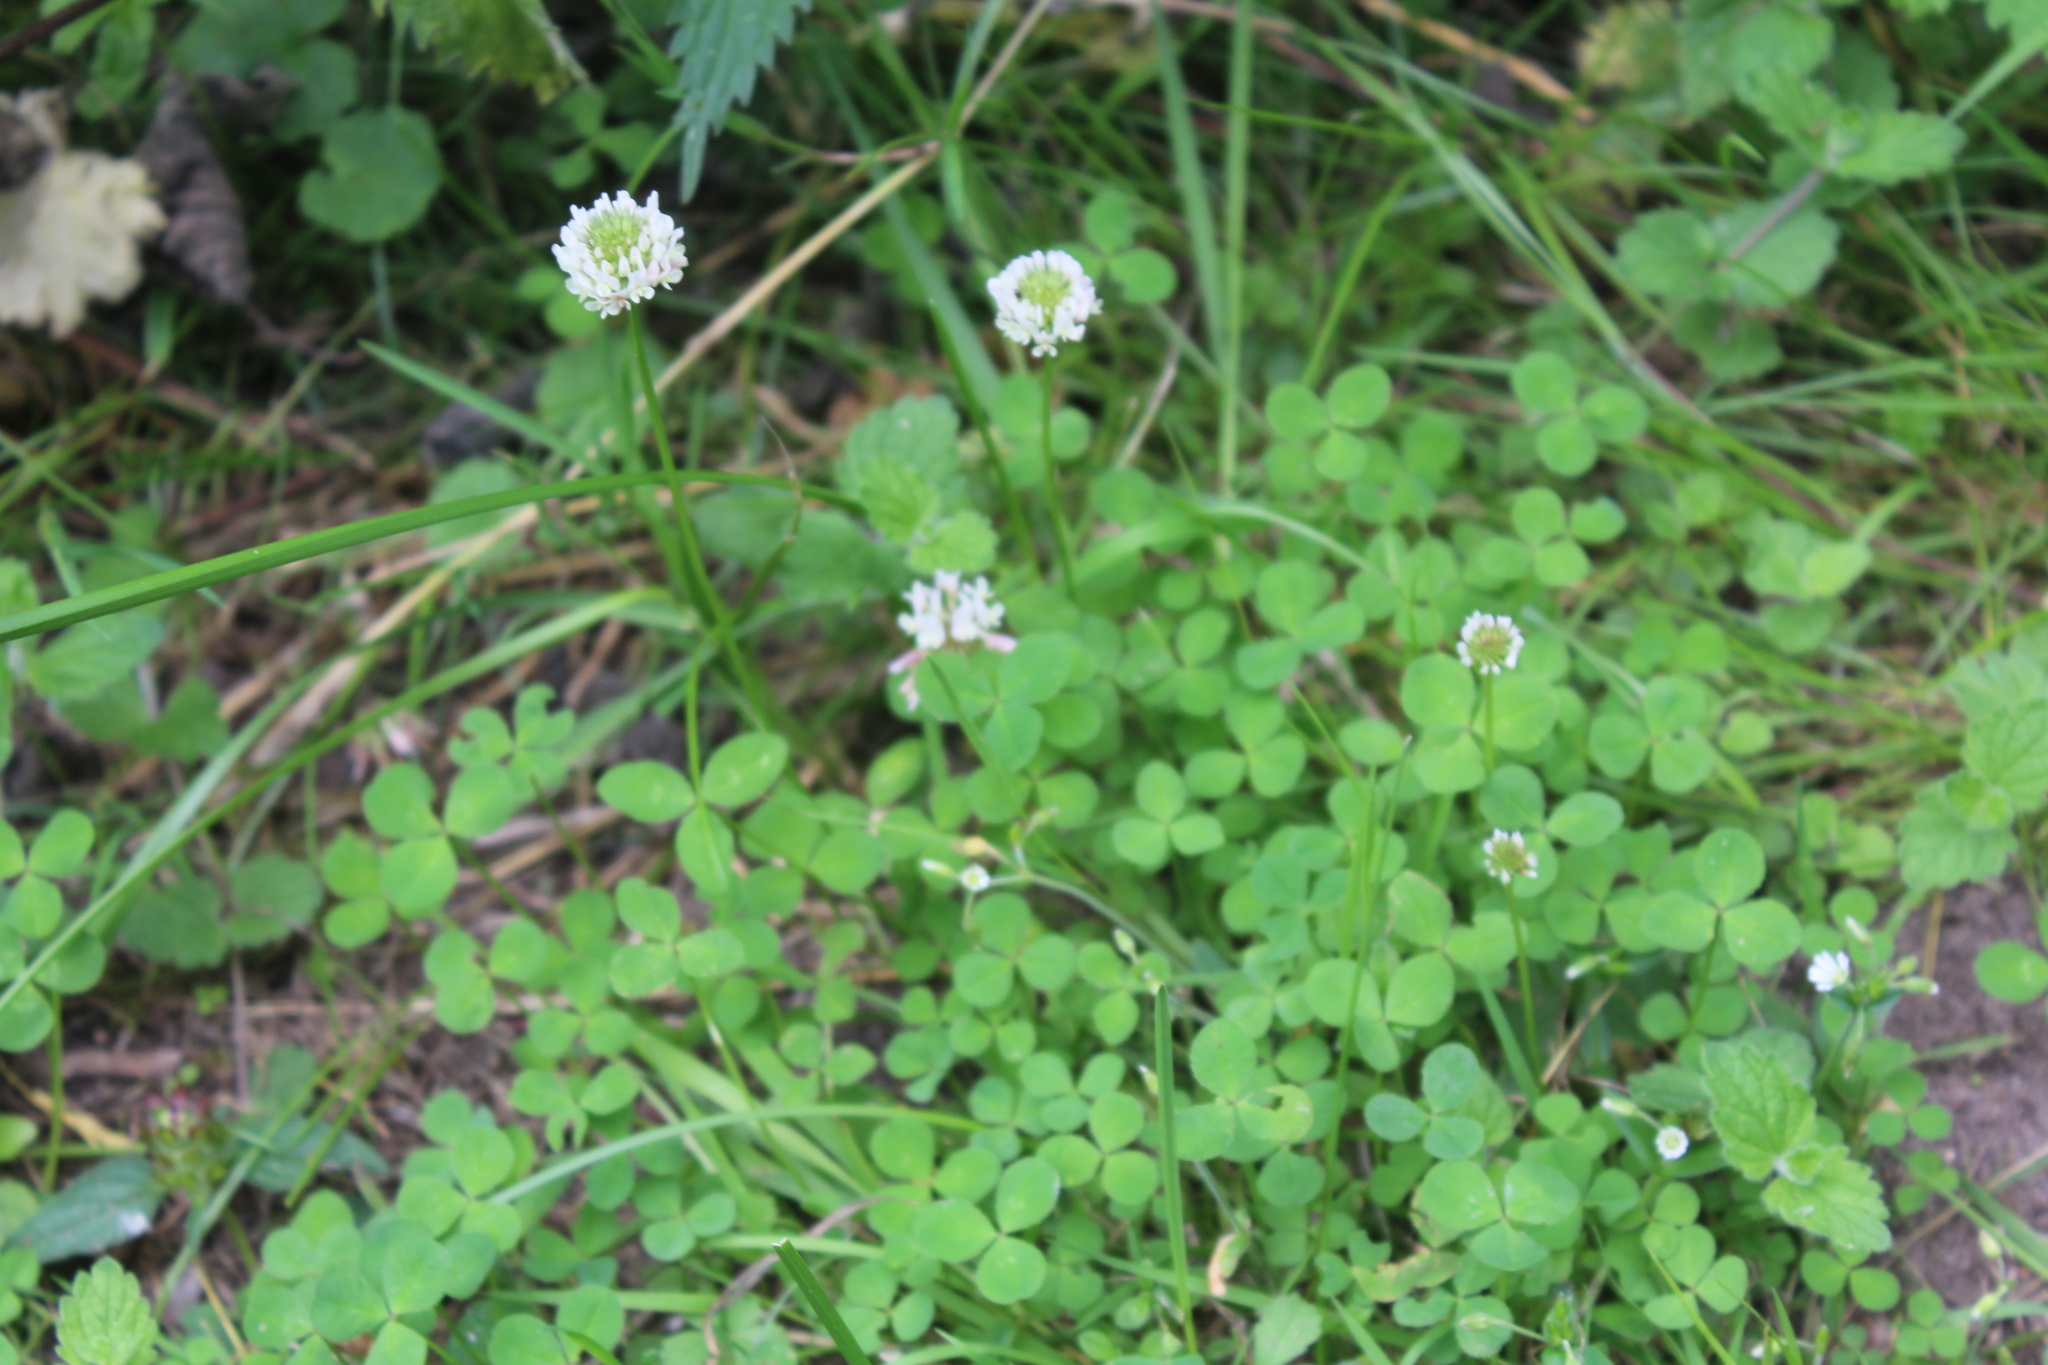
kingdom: Plantae
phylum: Tracheophyta
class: Magnoliopsida
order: Fabales
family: Fabaceae
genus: Trifolium
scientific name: Trifolium repens
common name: White clover
